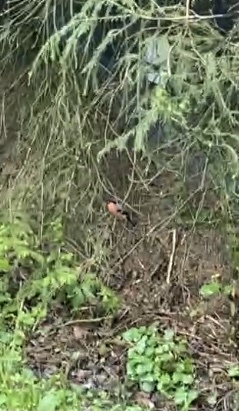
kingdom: Animalia
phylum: Chordata
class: Aves
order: Passeriformes
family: Fringillidae
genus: Pyrrhula
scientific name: Pyrrhula pyrrhula
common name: Eurasian bullfinch
